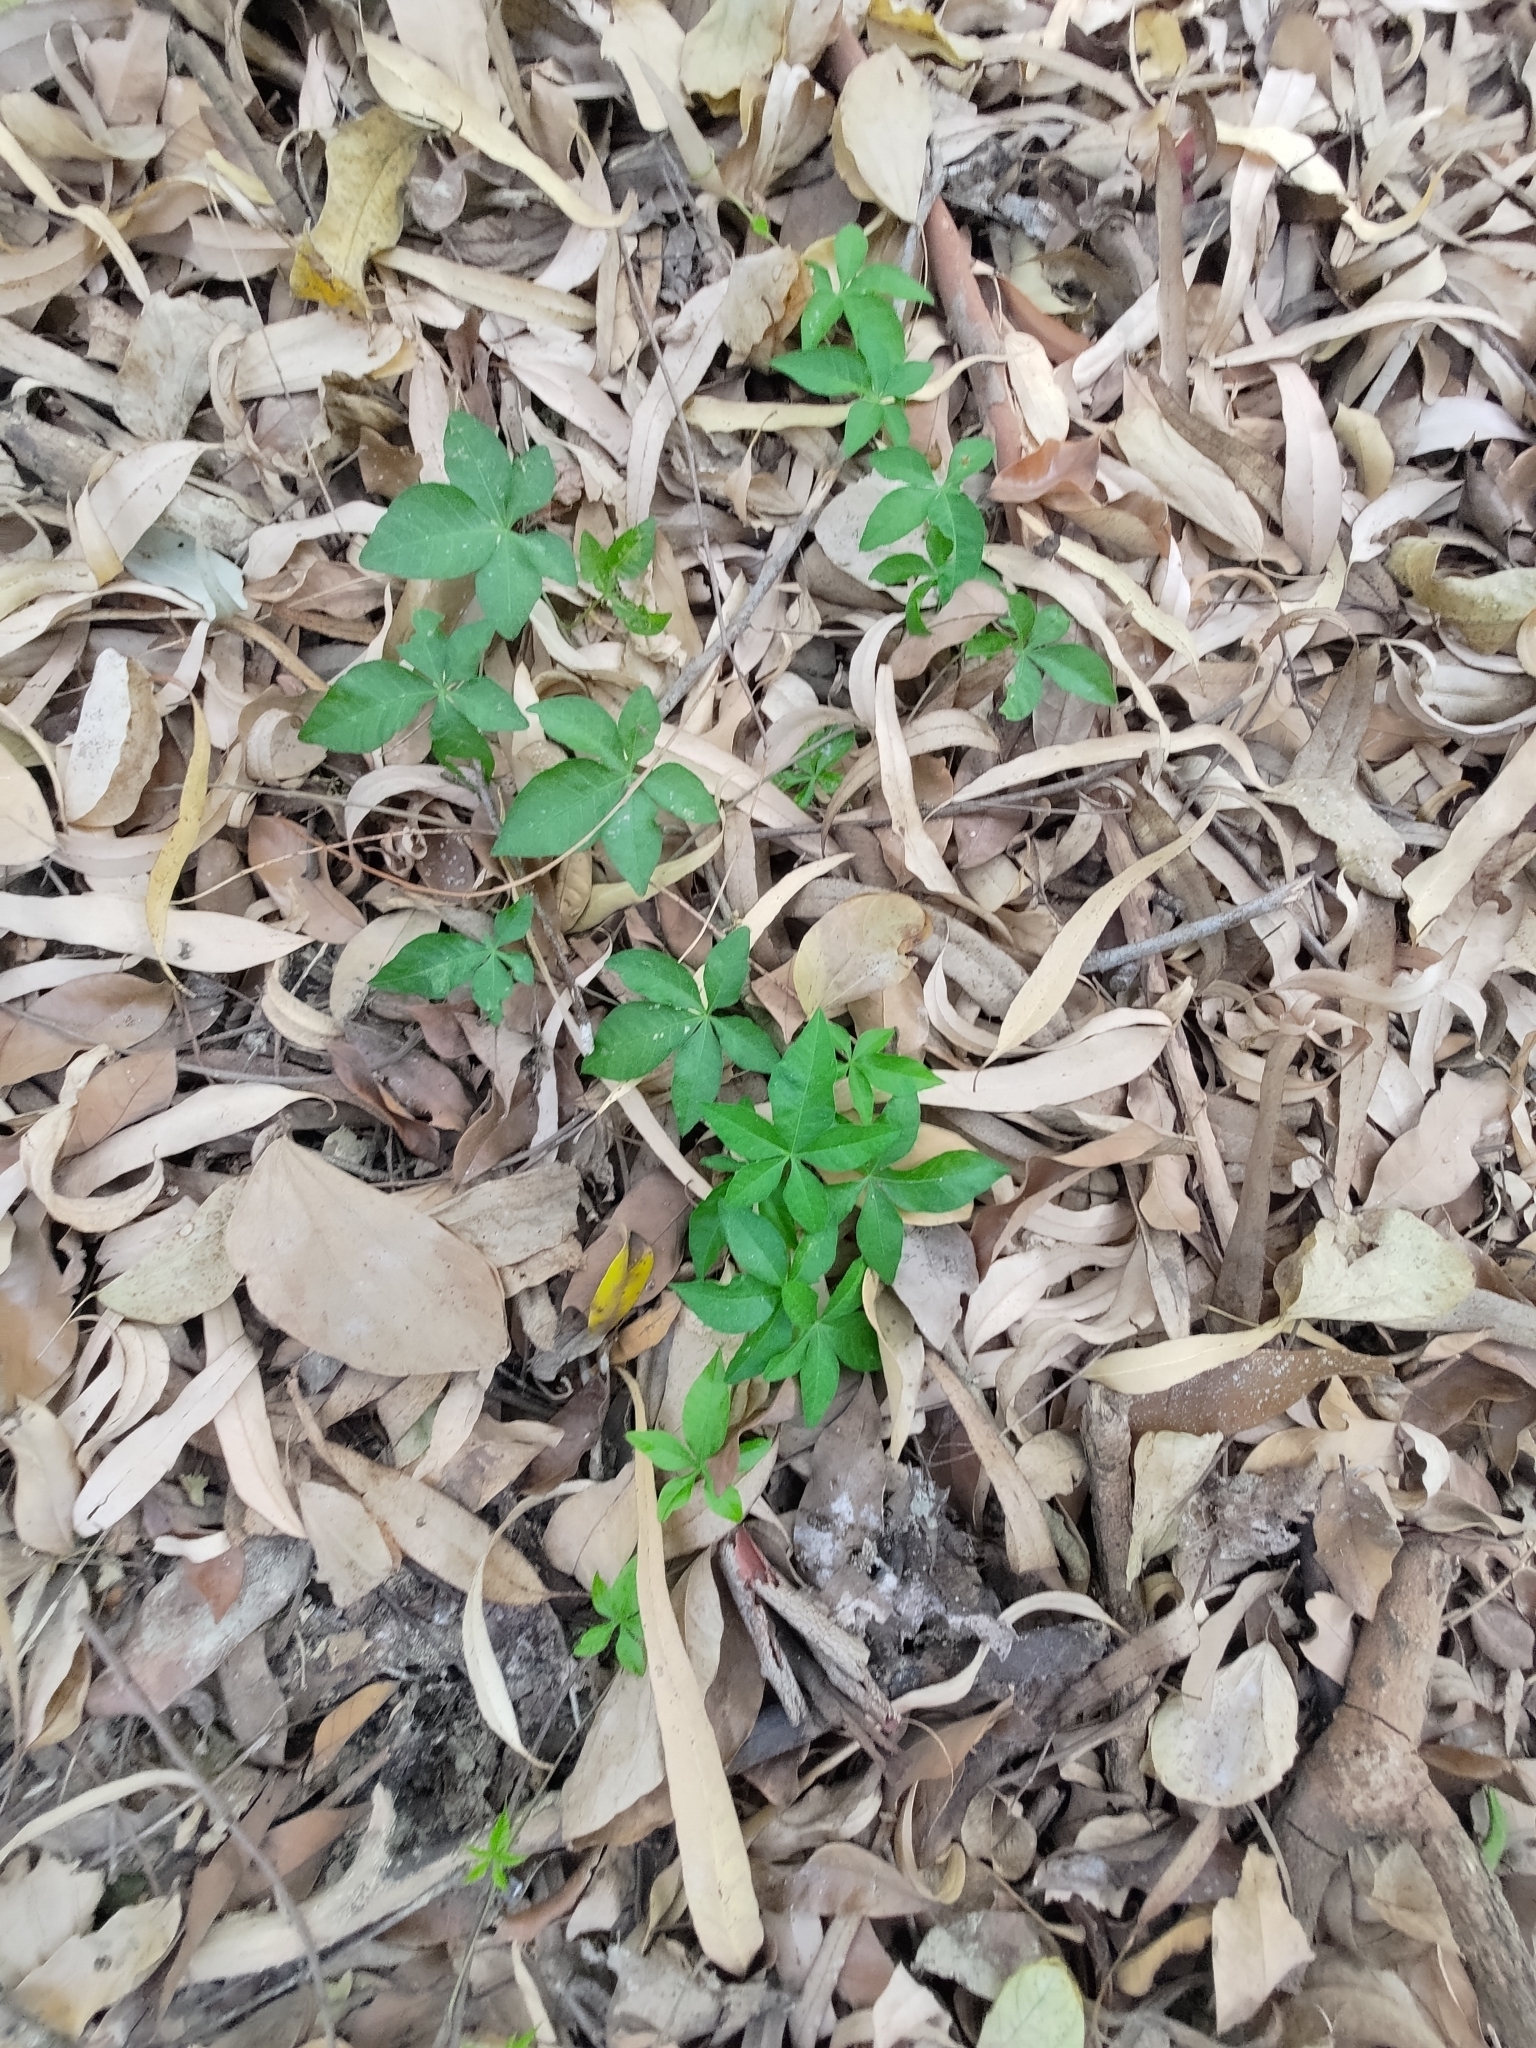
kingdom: Plantae
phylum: Tracheophyta
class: Magnoliopsida
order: Solanales
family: Convolvulaceae
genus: Ipomoea
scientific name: Ipomoea cairica
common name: Mile a minute vine
